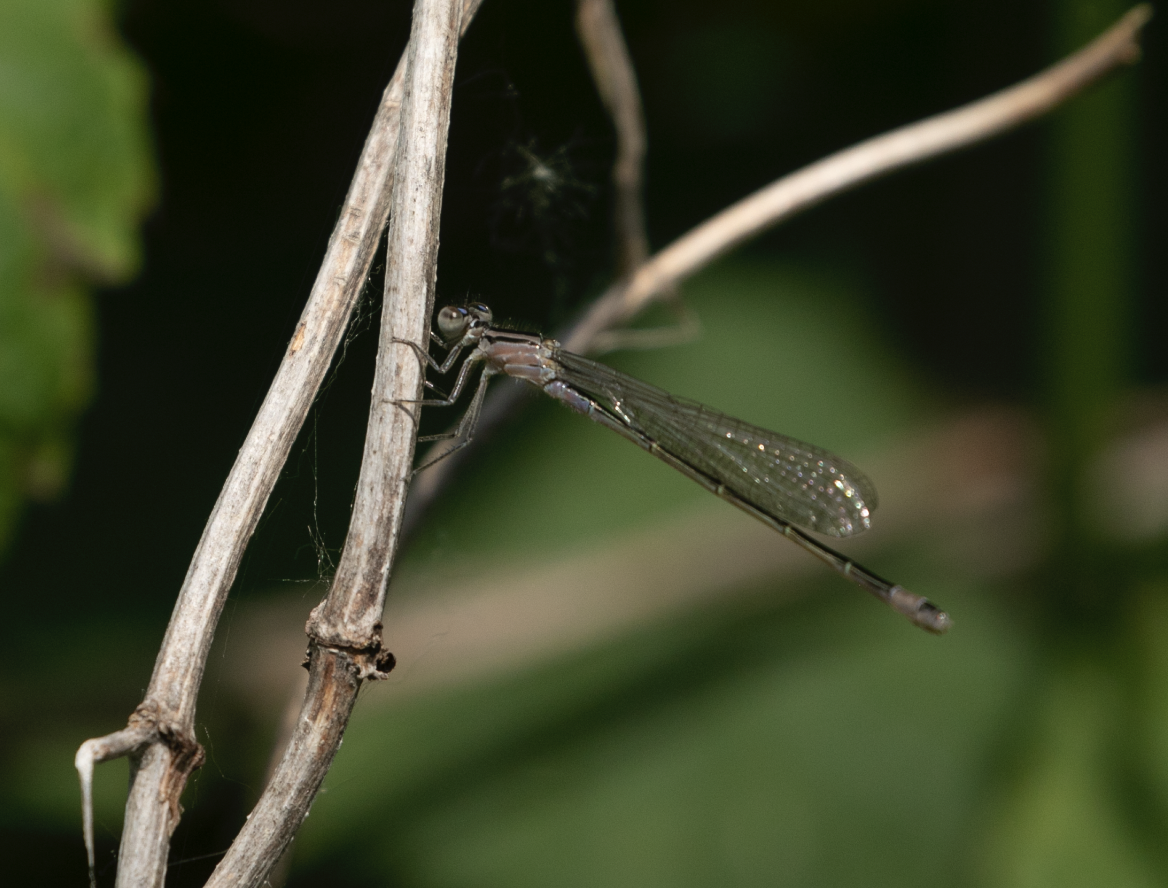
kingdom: Animalia
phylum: Arthropoda
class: Insecta
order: Odonata
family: Coenagrionidae
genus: Ischnura
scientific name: Ischnura elegans
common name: Blue-tailed damselfly
